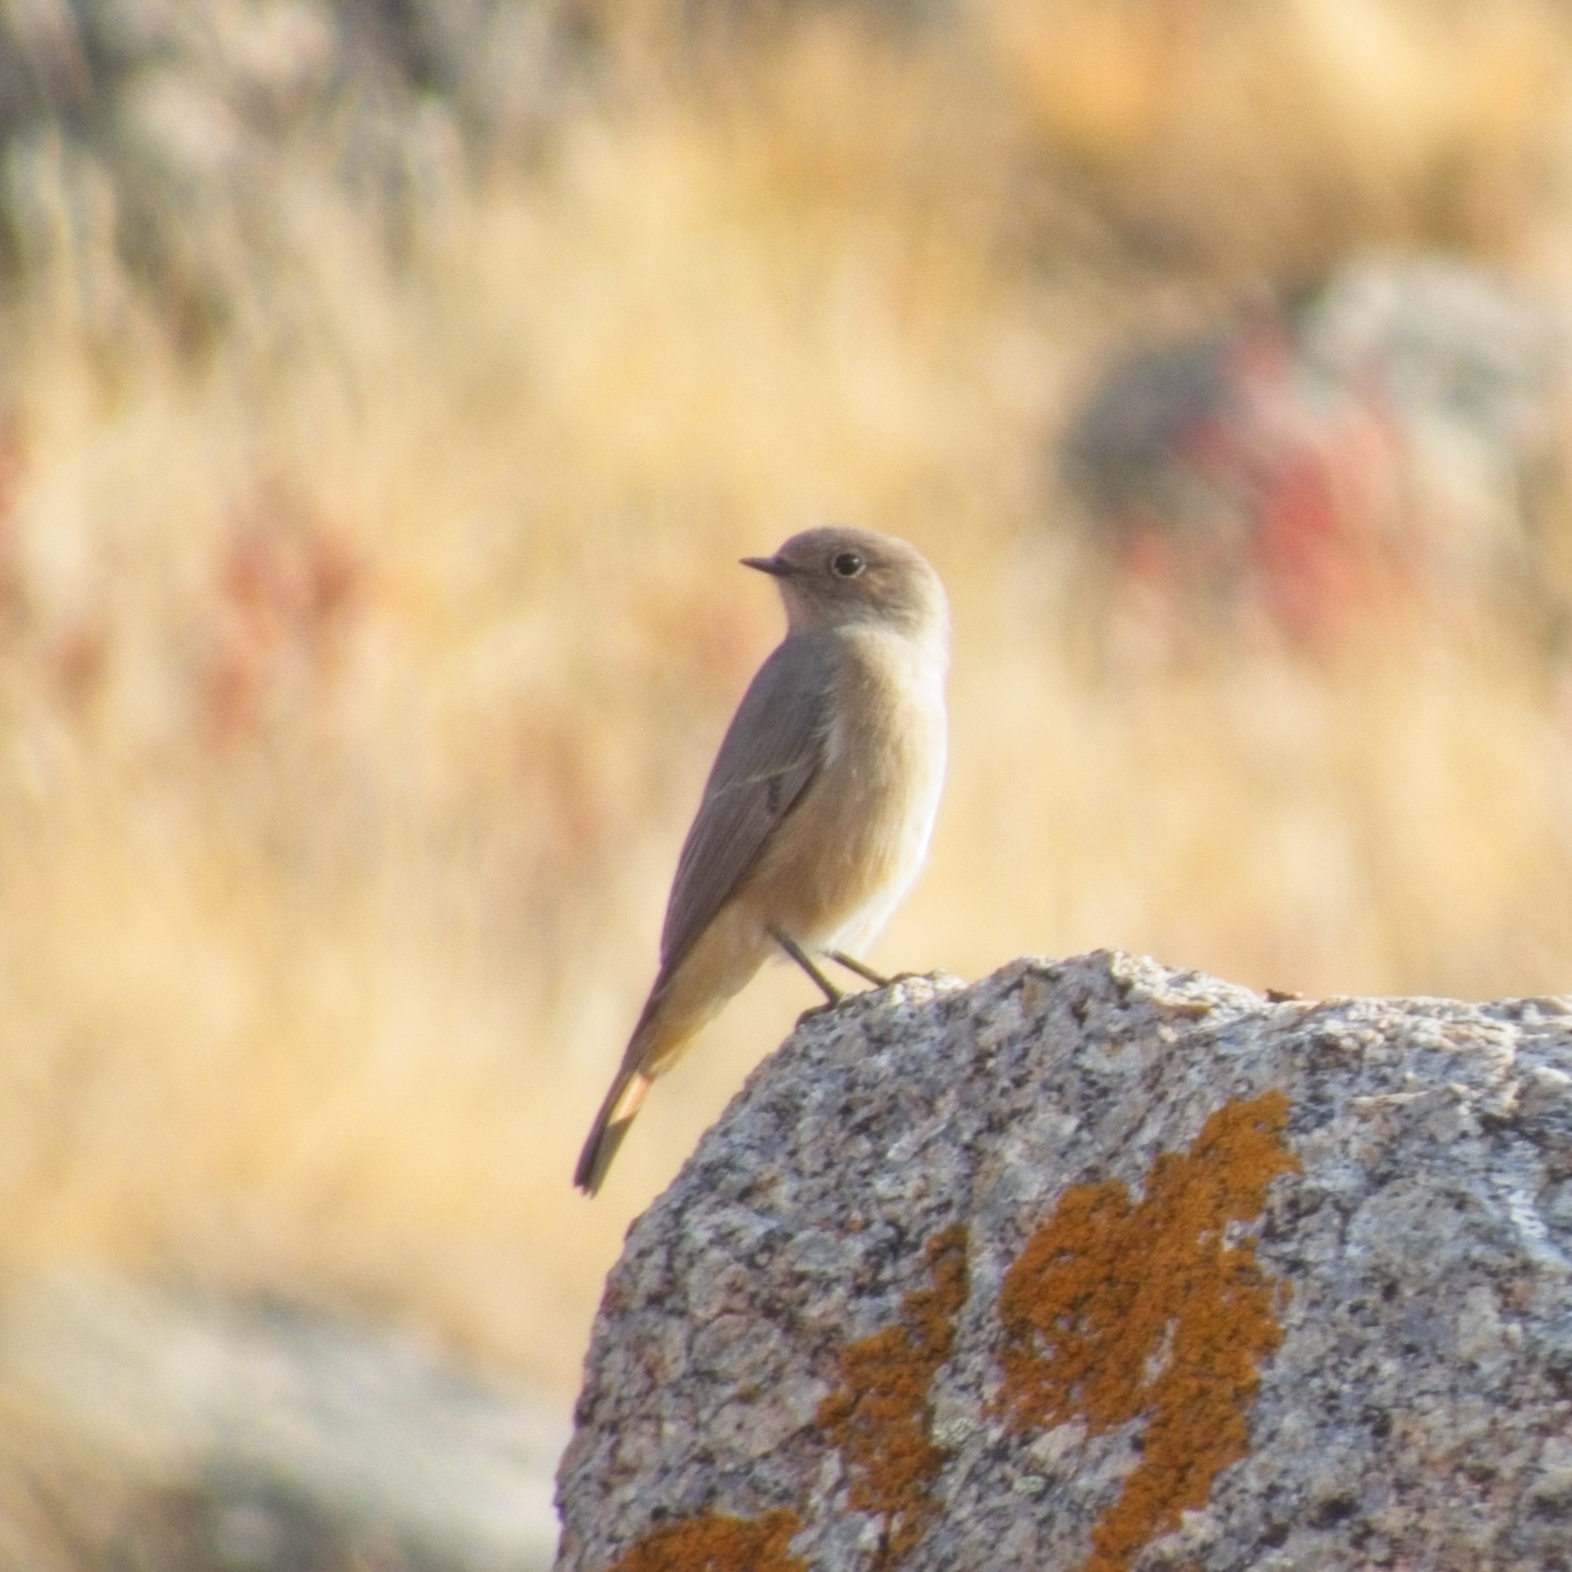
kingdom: Animalia
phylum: Chordata
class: Aves
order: Passeriformes
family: Muscicapidae
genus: Phoenicurus
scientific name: Phoenicurus erythronotus
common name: Eversmann's redstart
